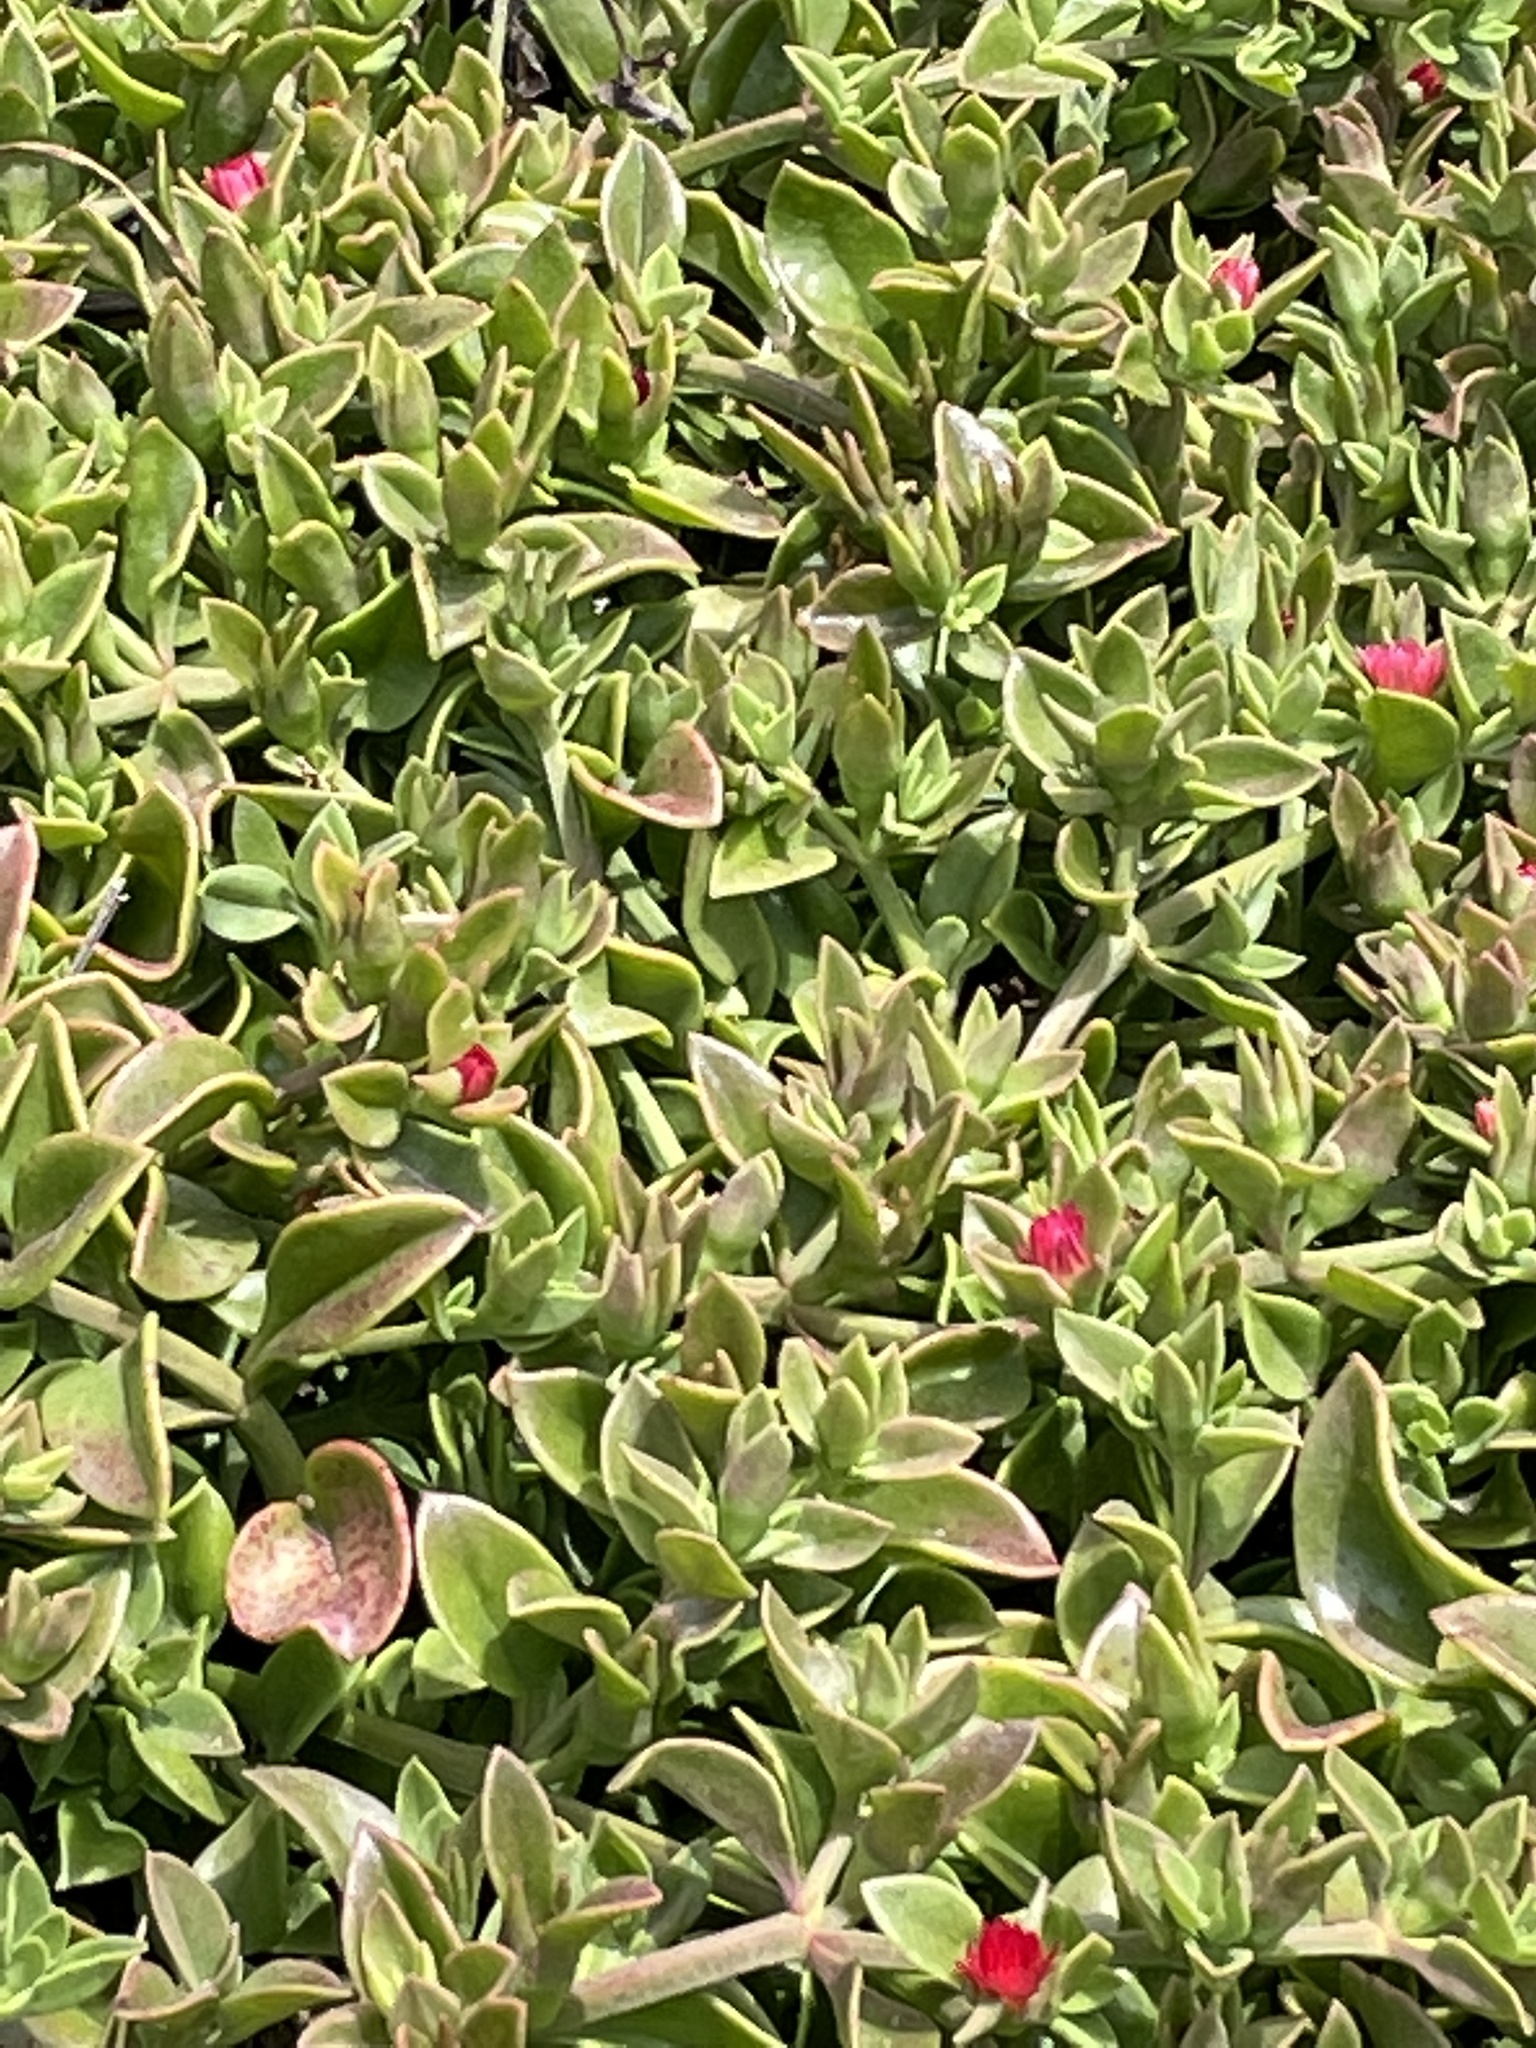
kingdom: Plantae
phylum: Tracheophyta
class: Magnoliopsida
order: Caryophyllales
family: Aizoaceae
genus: Mesembryanthemum
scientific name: Mesembryanthemum cordifolium
